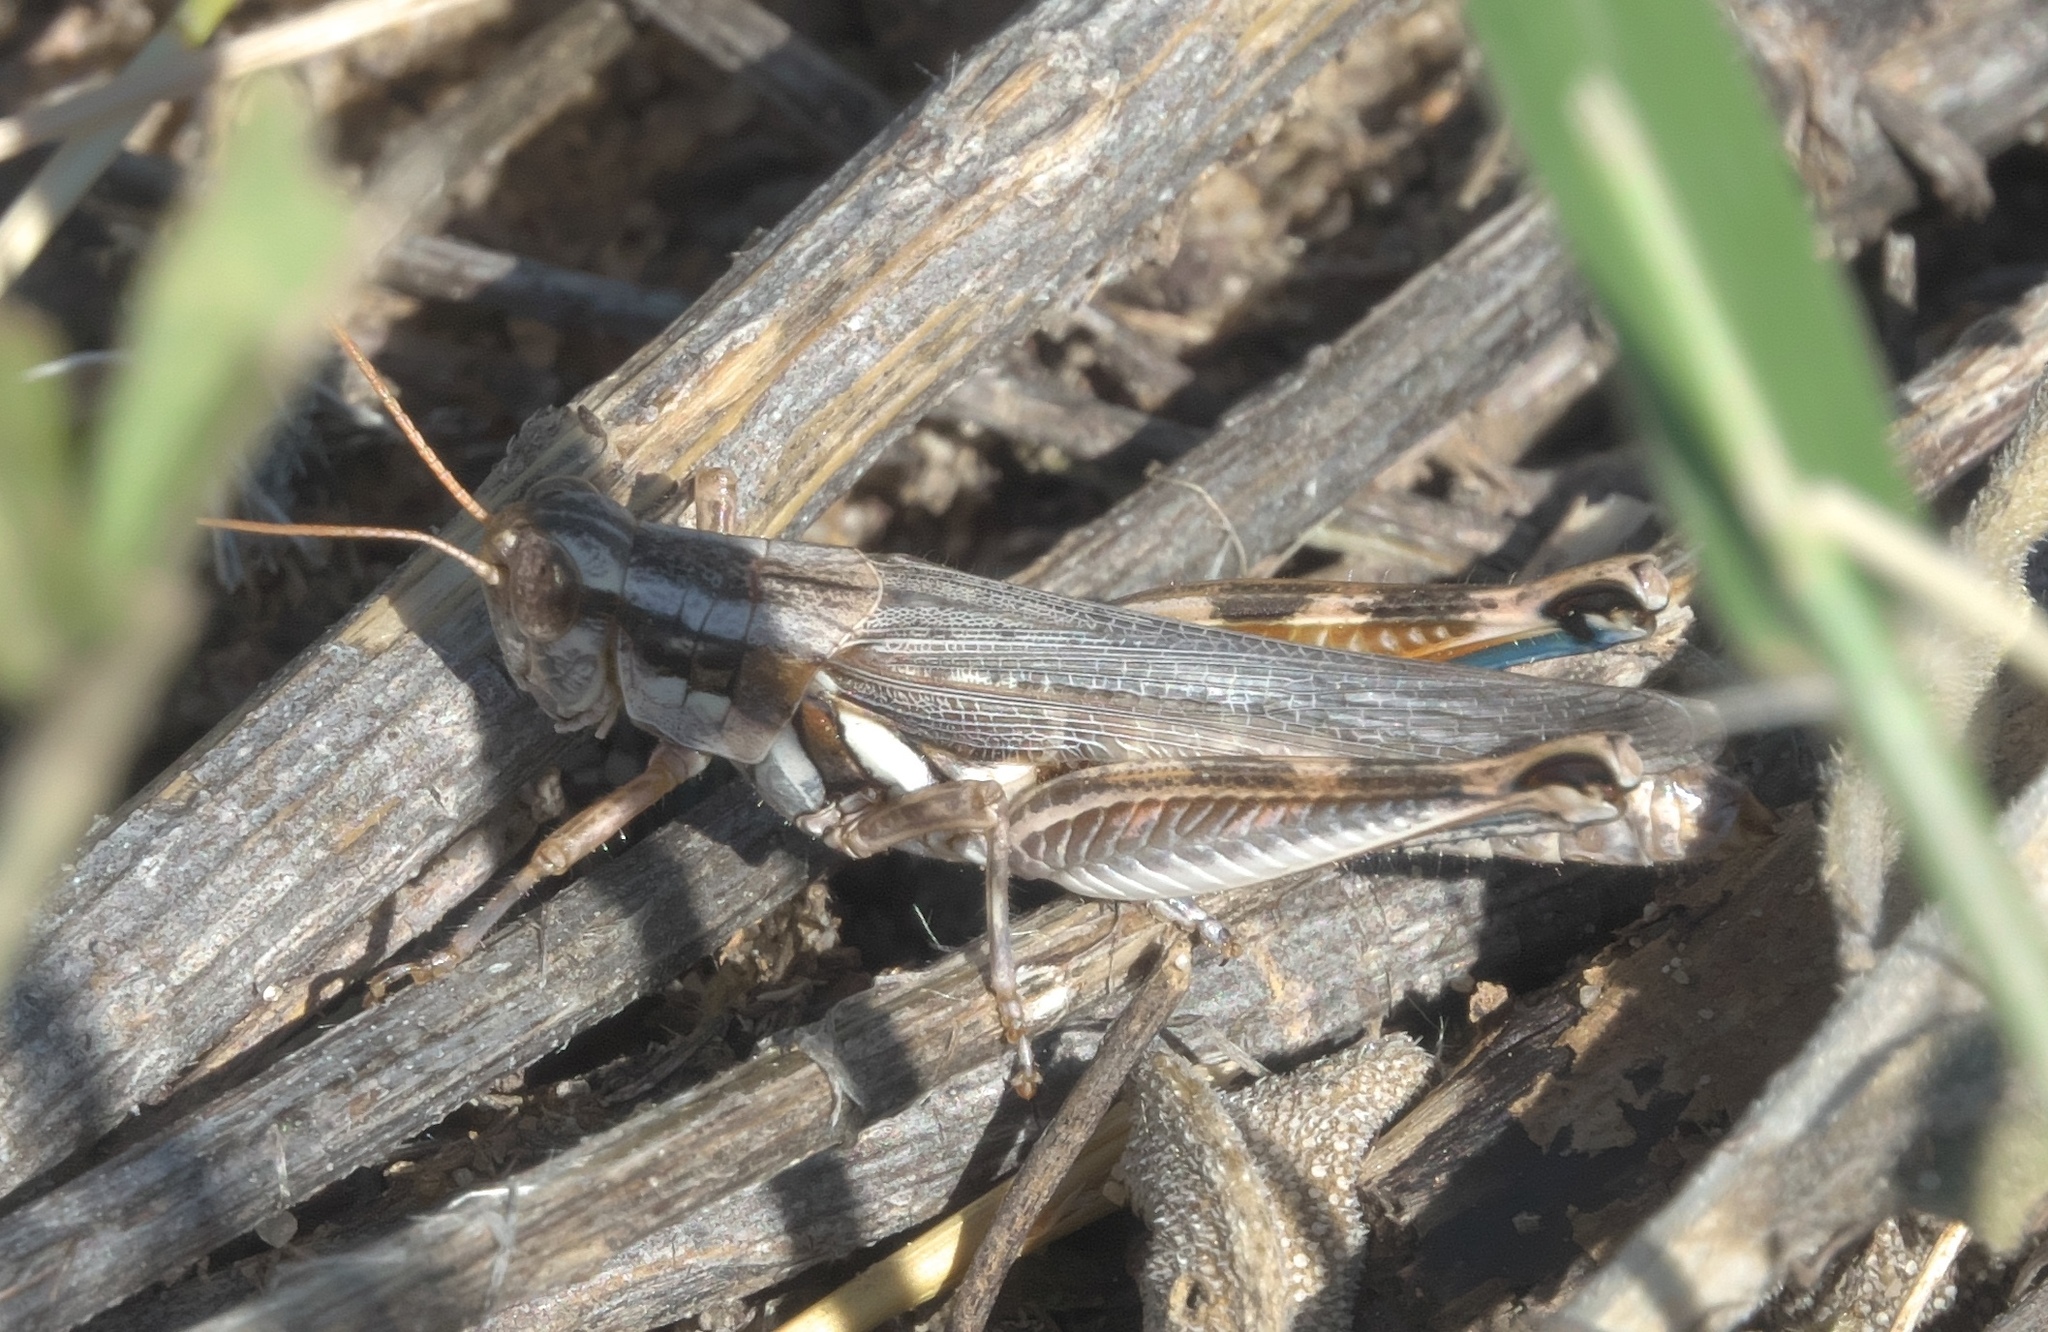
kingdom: Animalia
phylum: Arthropoda
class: Insecta
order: Orthoptera
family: Acrididae
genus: Melanoplus
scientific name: Melanoplus bowditchi
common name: Sagebrush grasshopper
